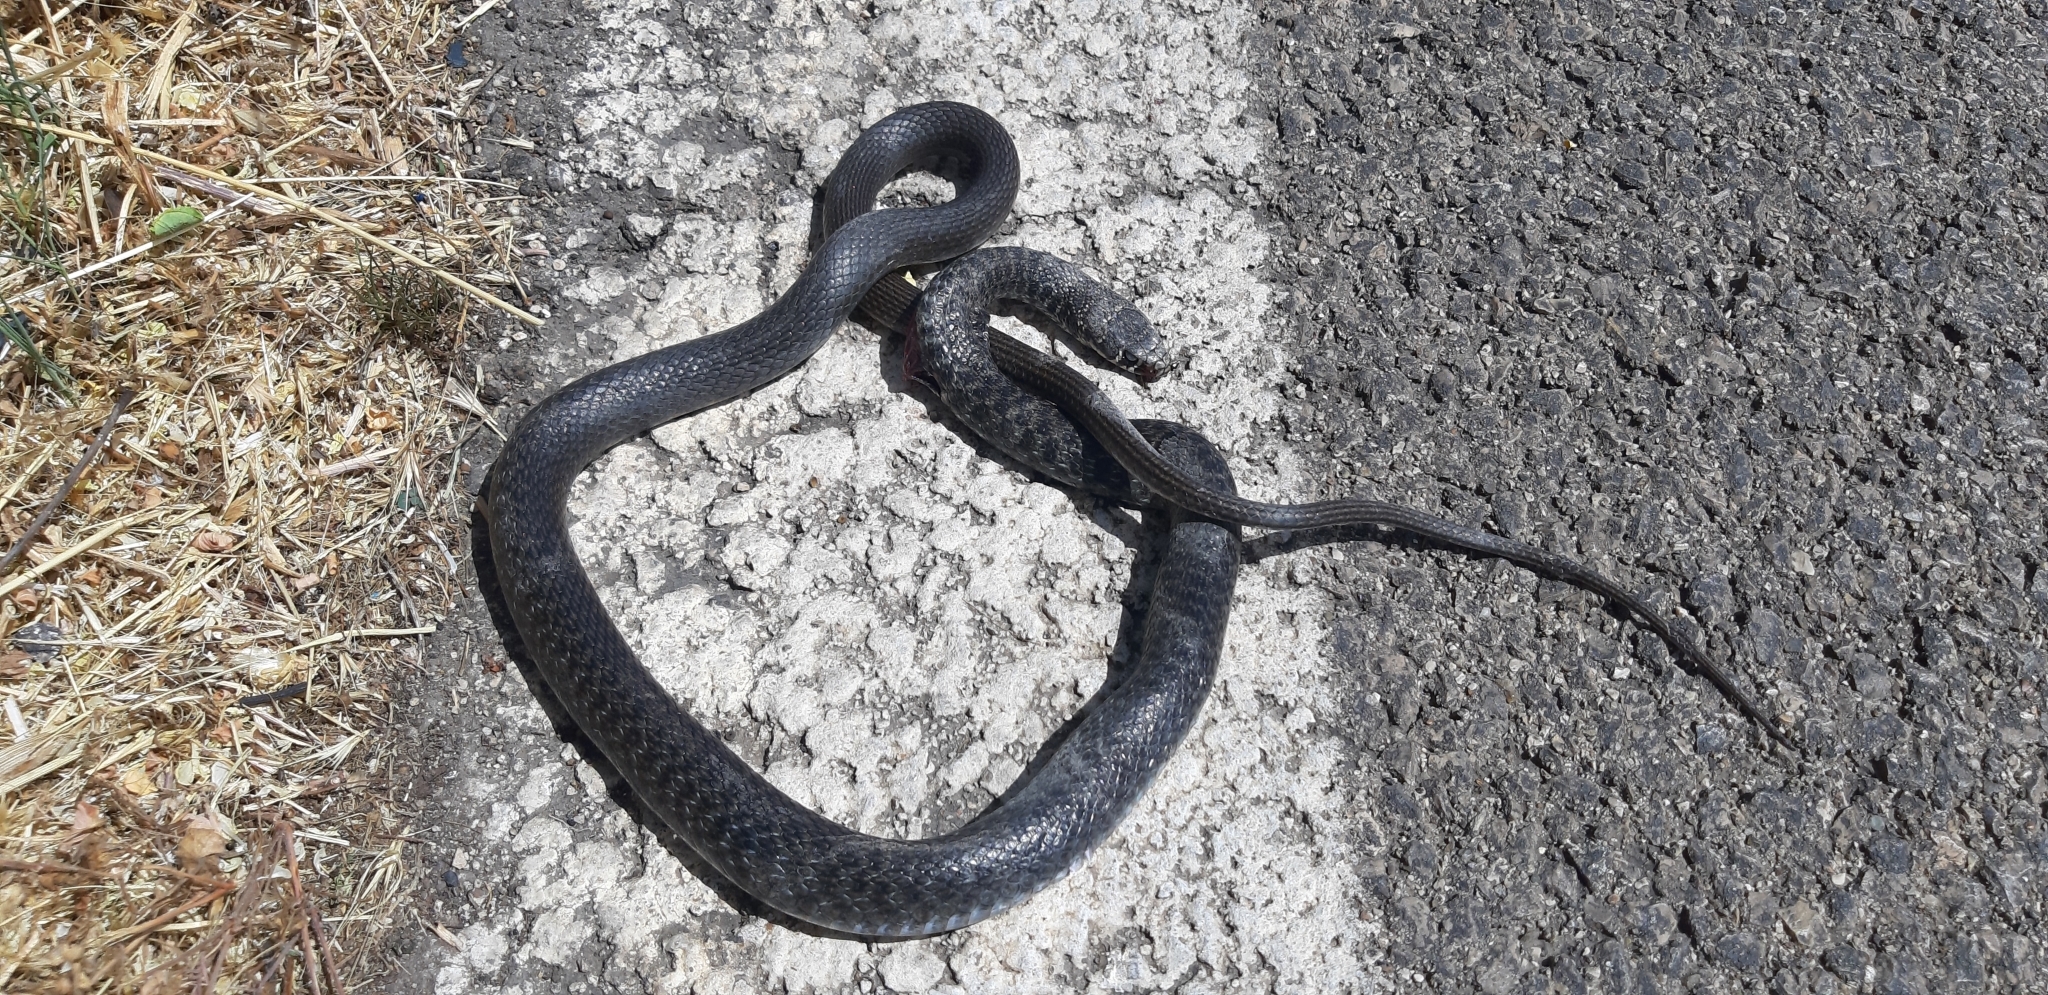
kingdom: Animalia
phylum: Chordata
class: Squamata
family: Colubridae
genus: Hierophis
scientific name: Hierophis viridiflavus
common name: Green whip snake
